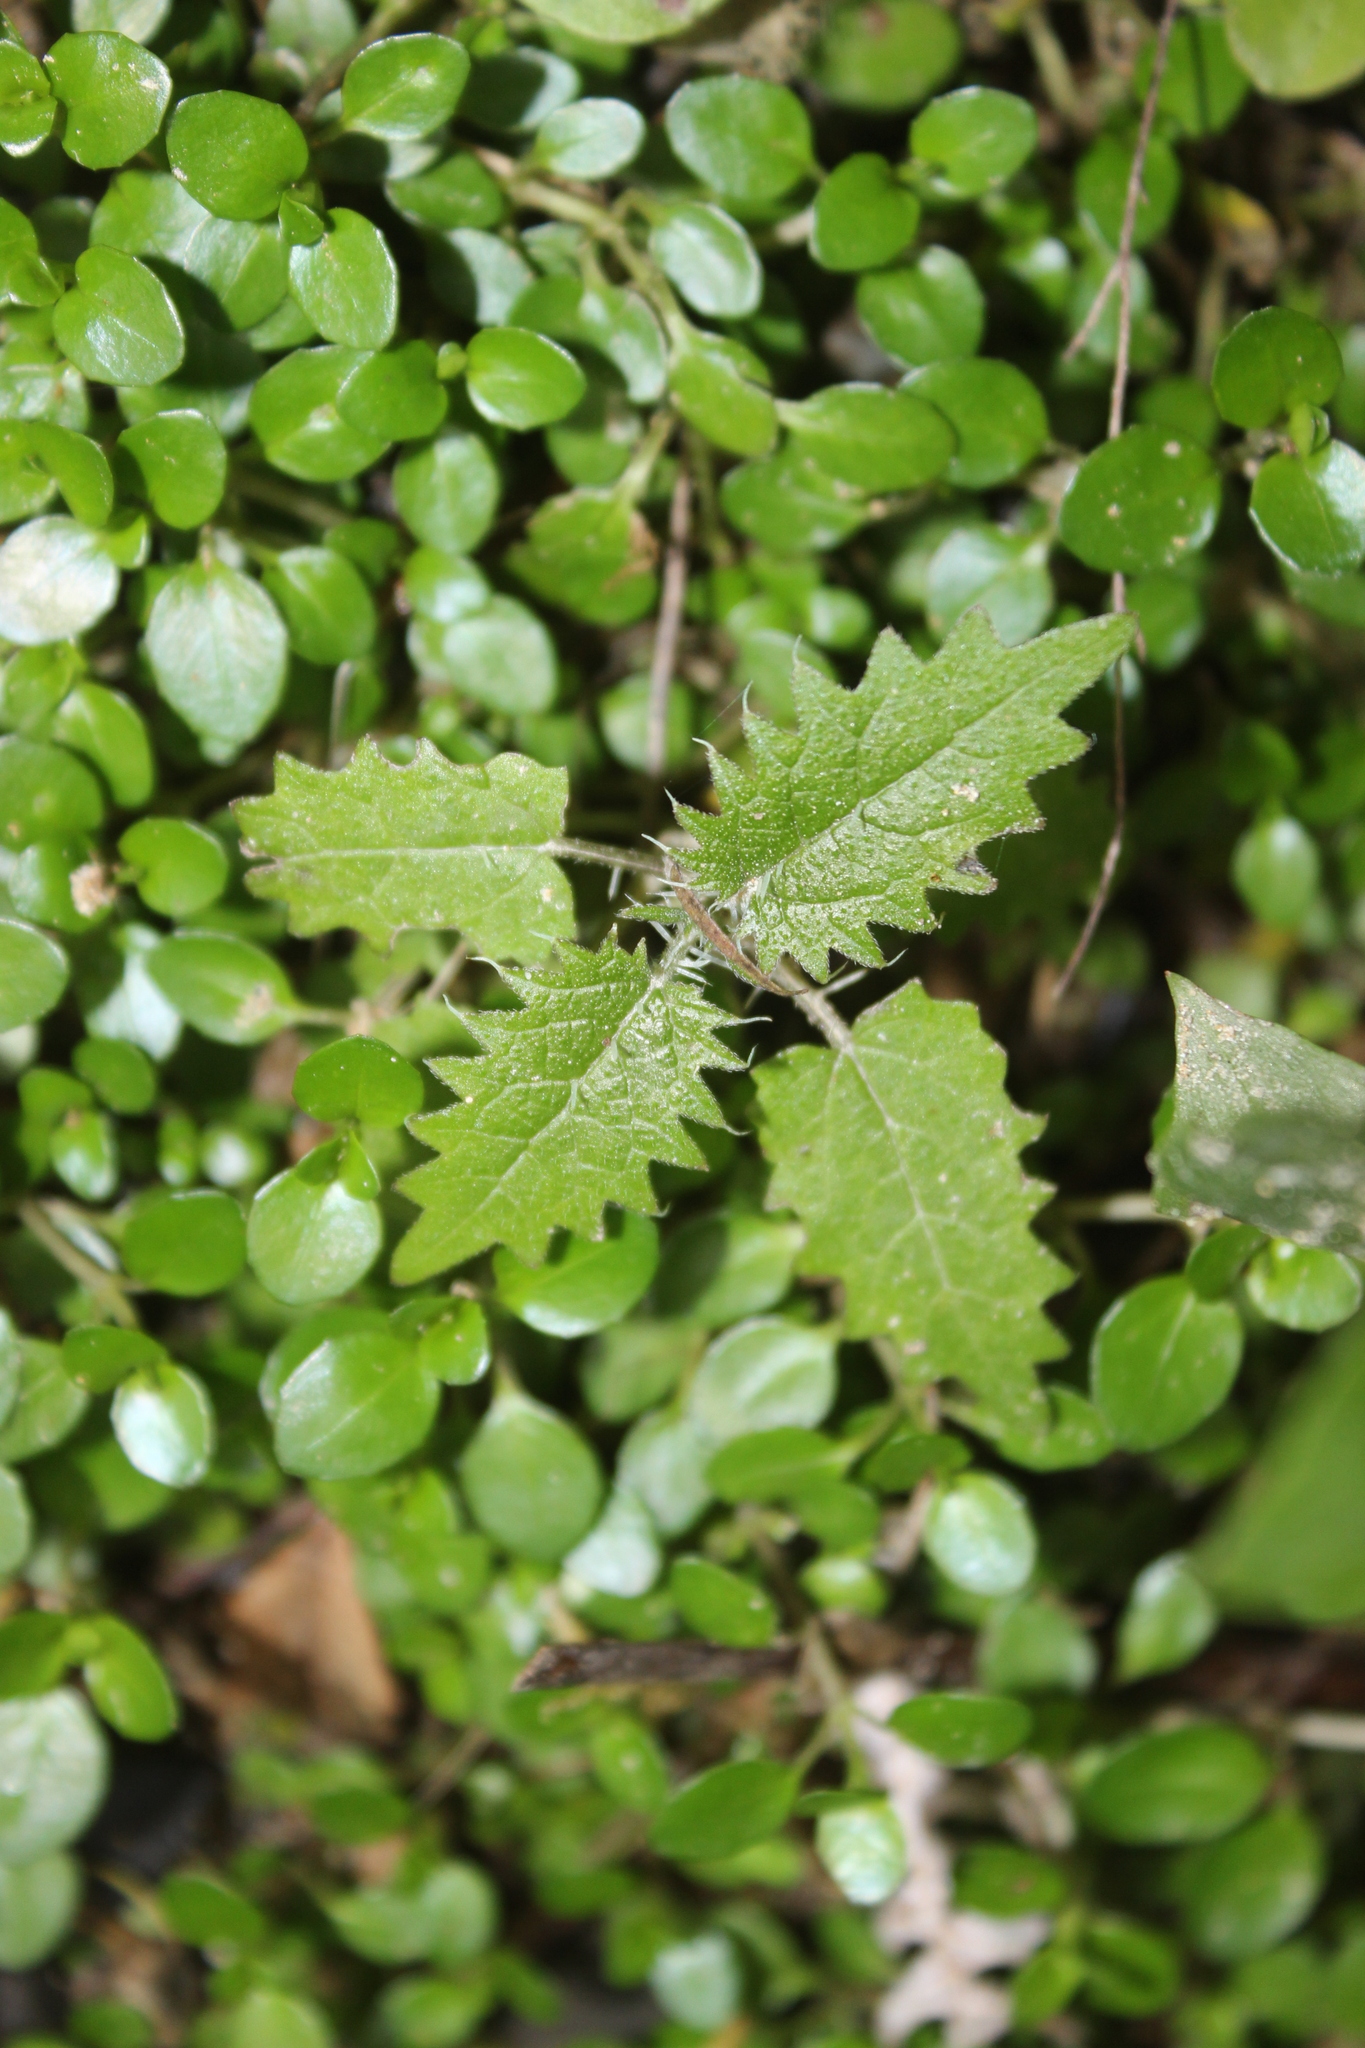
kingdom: Plantae
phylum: Tracheophyta
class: Magnoliopsida
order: Rosales
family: Urticaceae
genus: Urtica
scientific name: Urtica ferox
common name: Tree nettle
